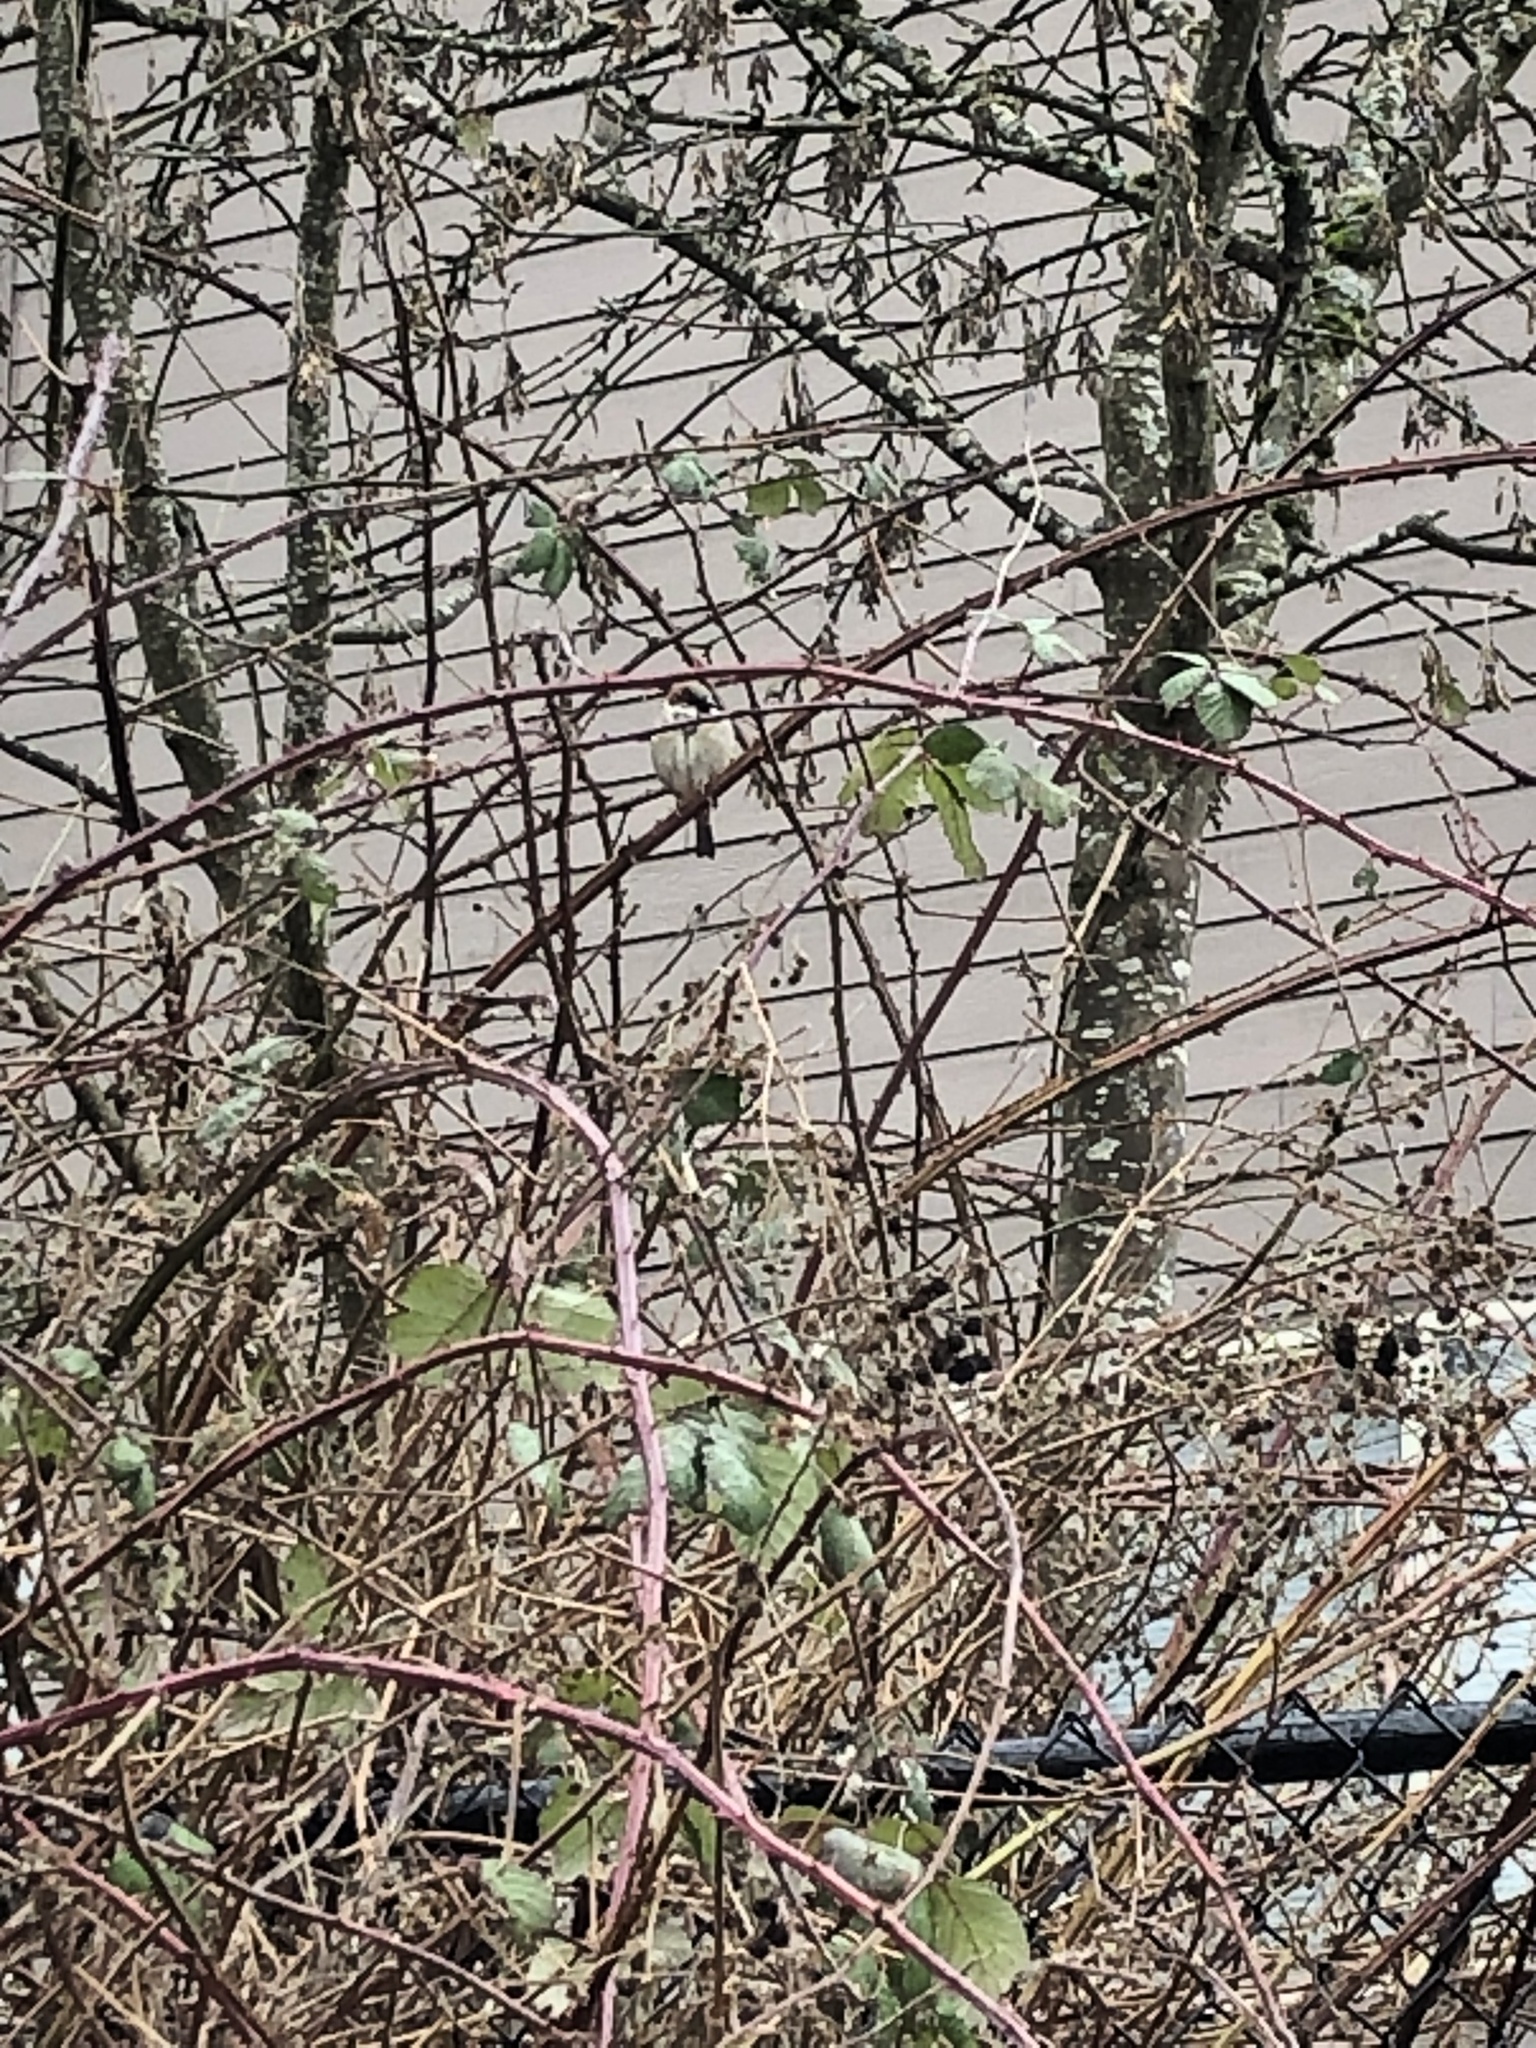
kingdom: Animalia
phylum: Chordata
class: Aves
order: Passeriformes
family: Passeridae
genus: Passer
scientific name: Passer domesticus
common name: House sparrow
